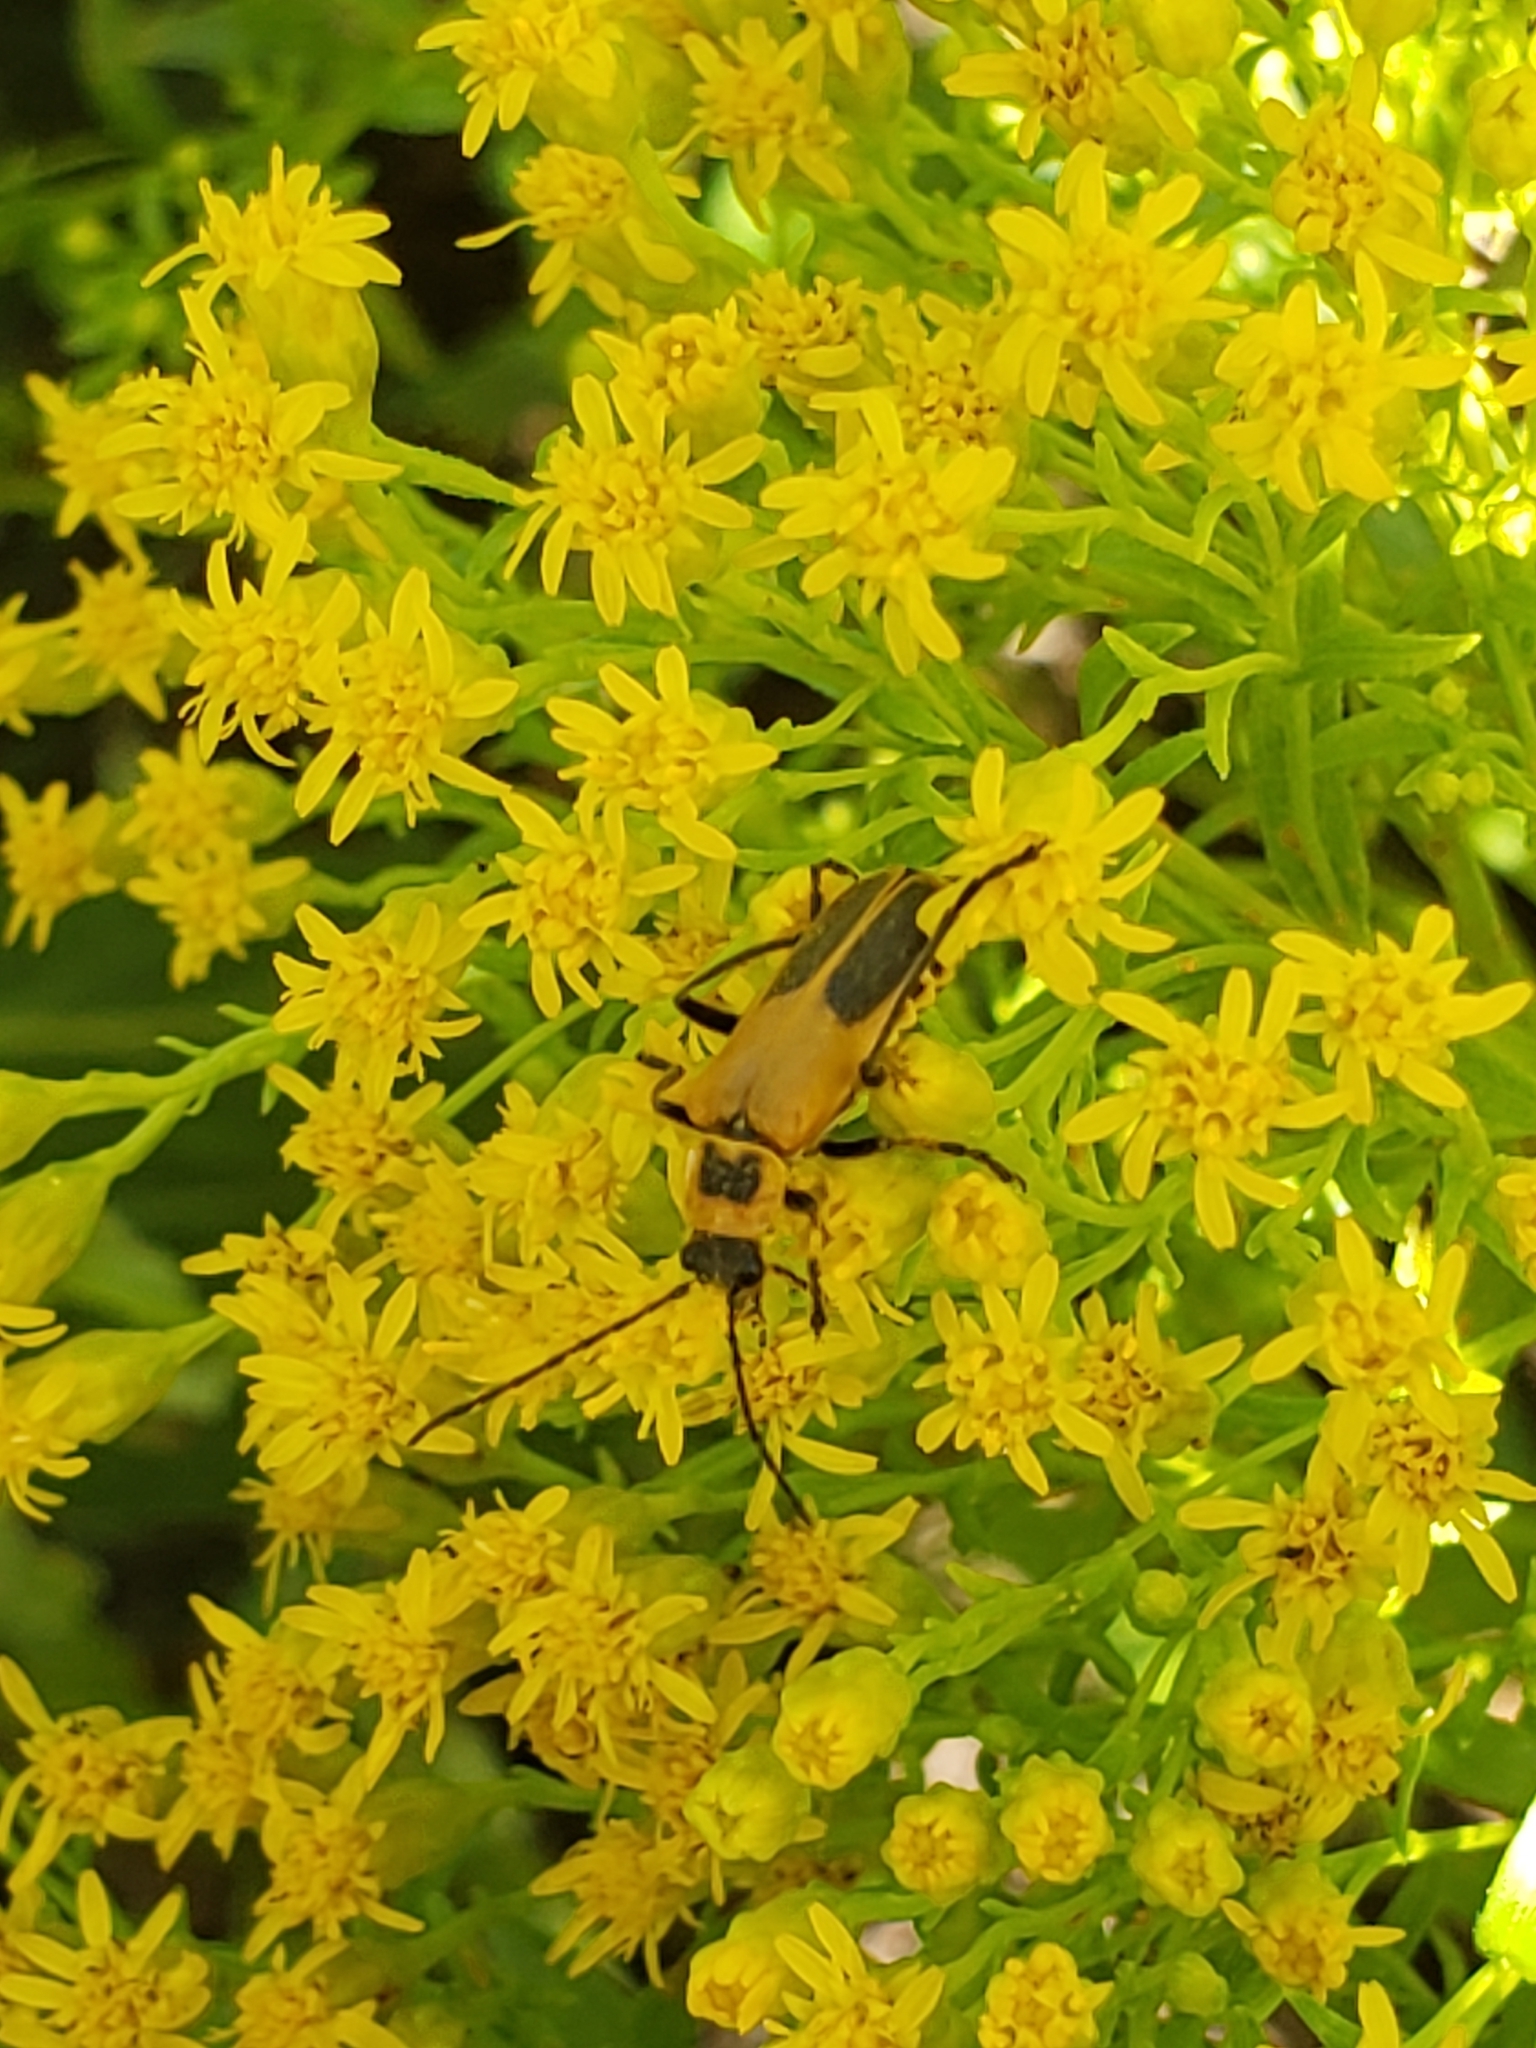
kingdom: Animalia
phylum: Arthropoda
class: Insecta
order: Coleoptera
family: Cantharidae
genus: Chauliognathus
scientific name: Chauliognathus pensylvanicus
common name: Goldenrod soldier beetle
